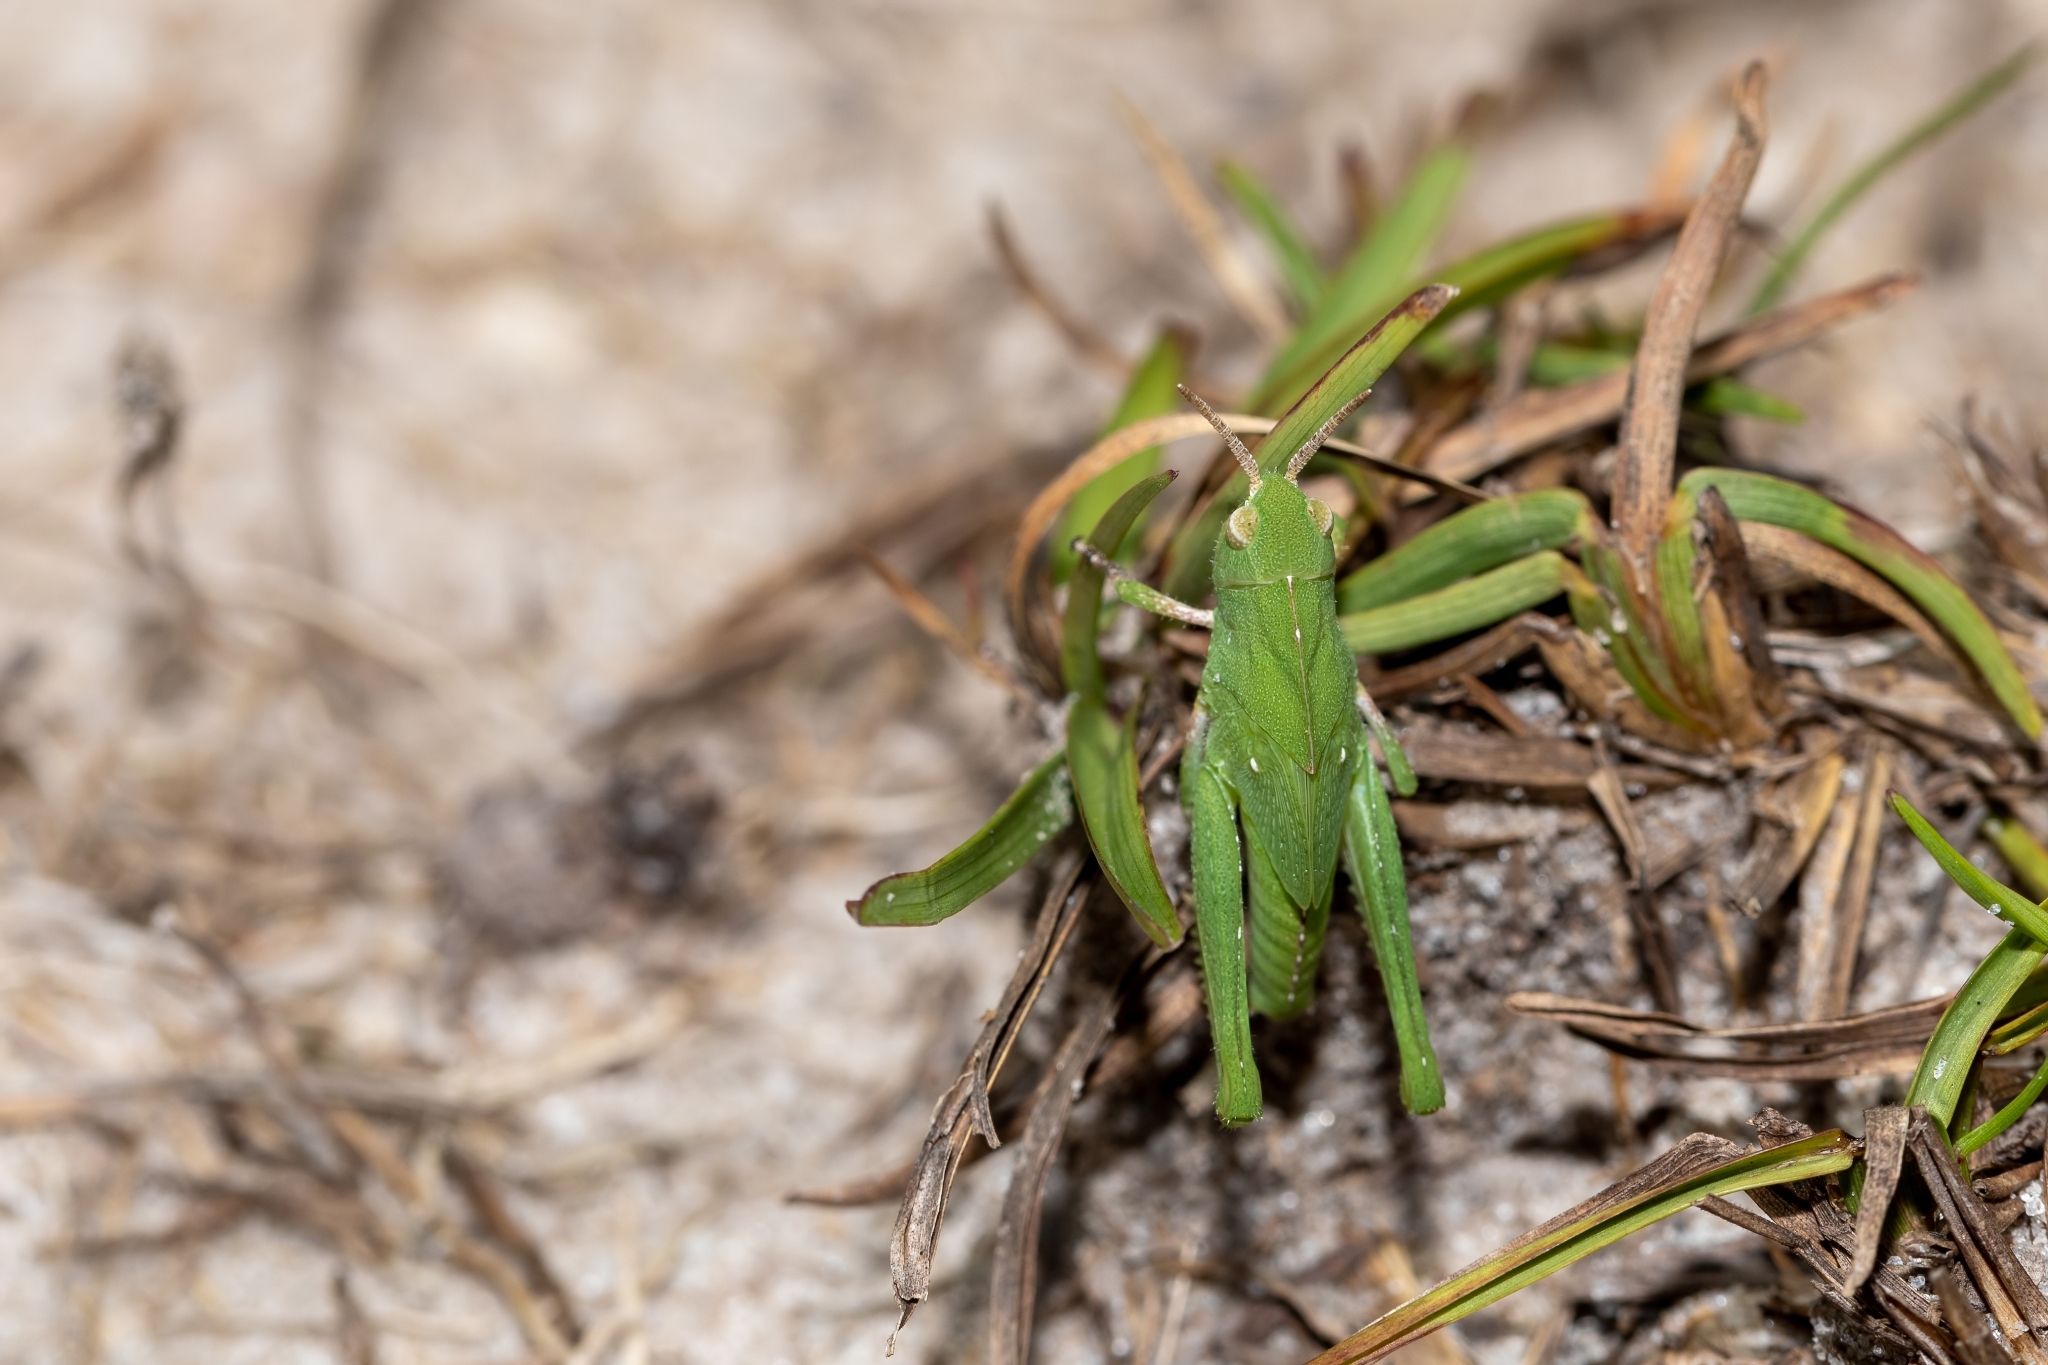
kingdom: Animalia
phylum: Arthropoda
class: Insecta
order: Orthoptera
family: Acrididae
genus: Chortophaga
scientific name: Chortophaga australior
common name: Southern green-striped grasshopper
